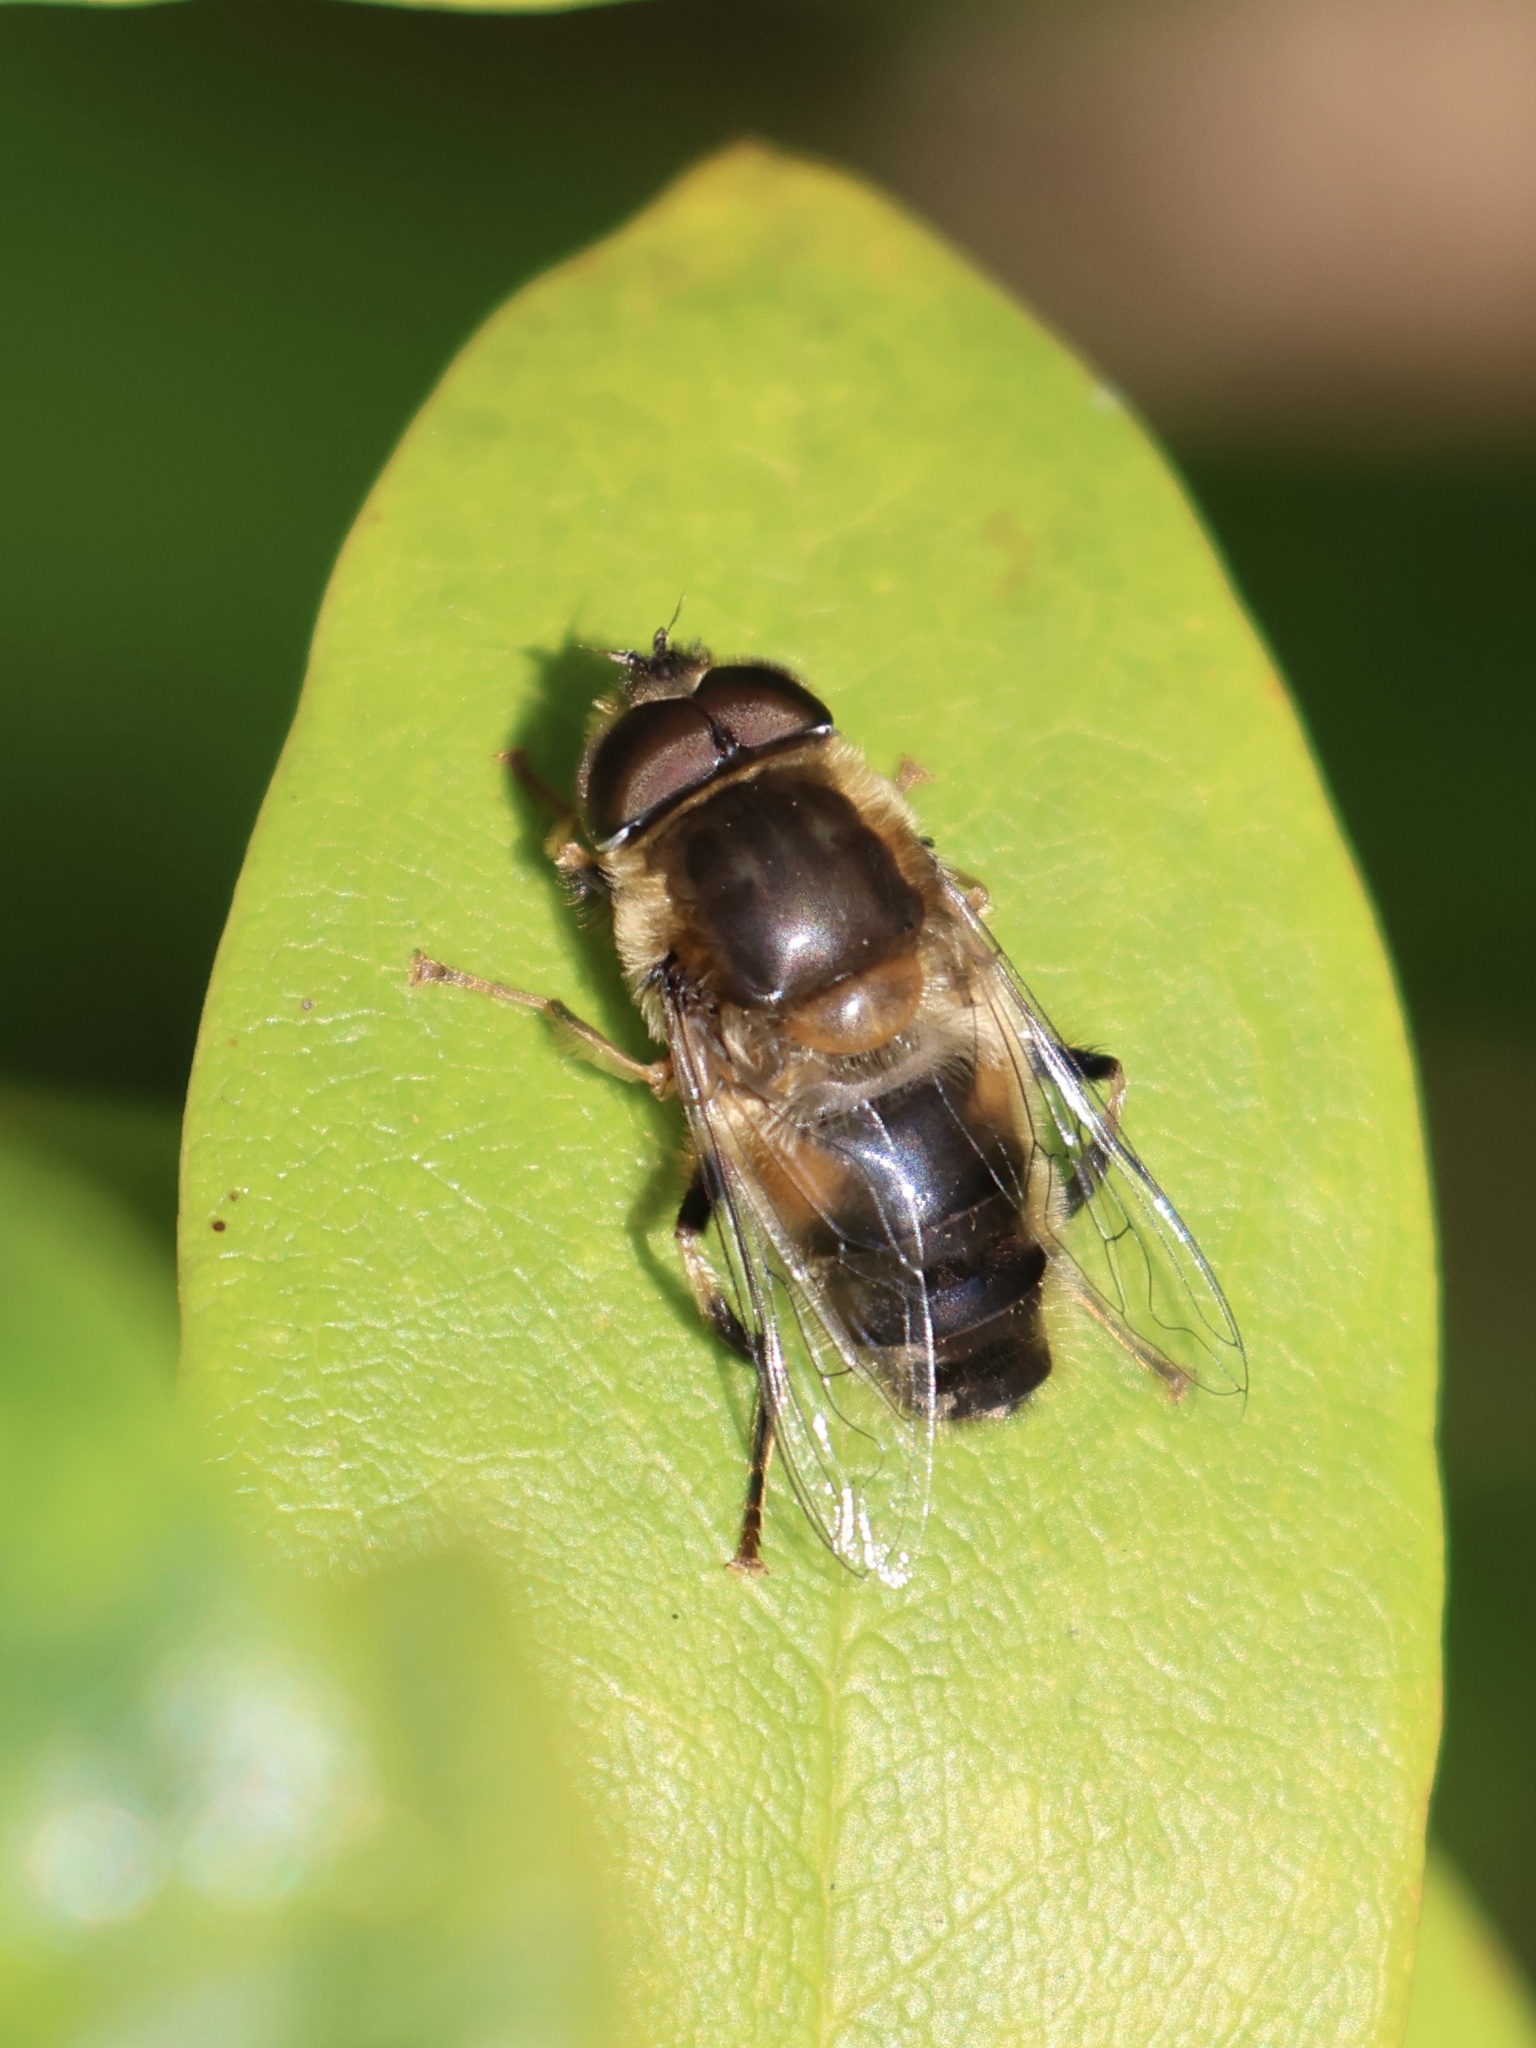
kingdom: Animalia
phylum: Arthropoda
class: Insecta
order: Diptera
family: Syrphidae
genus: Eristalis
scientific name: Eristalis pertinax
